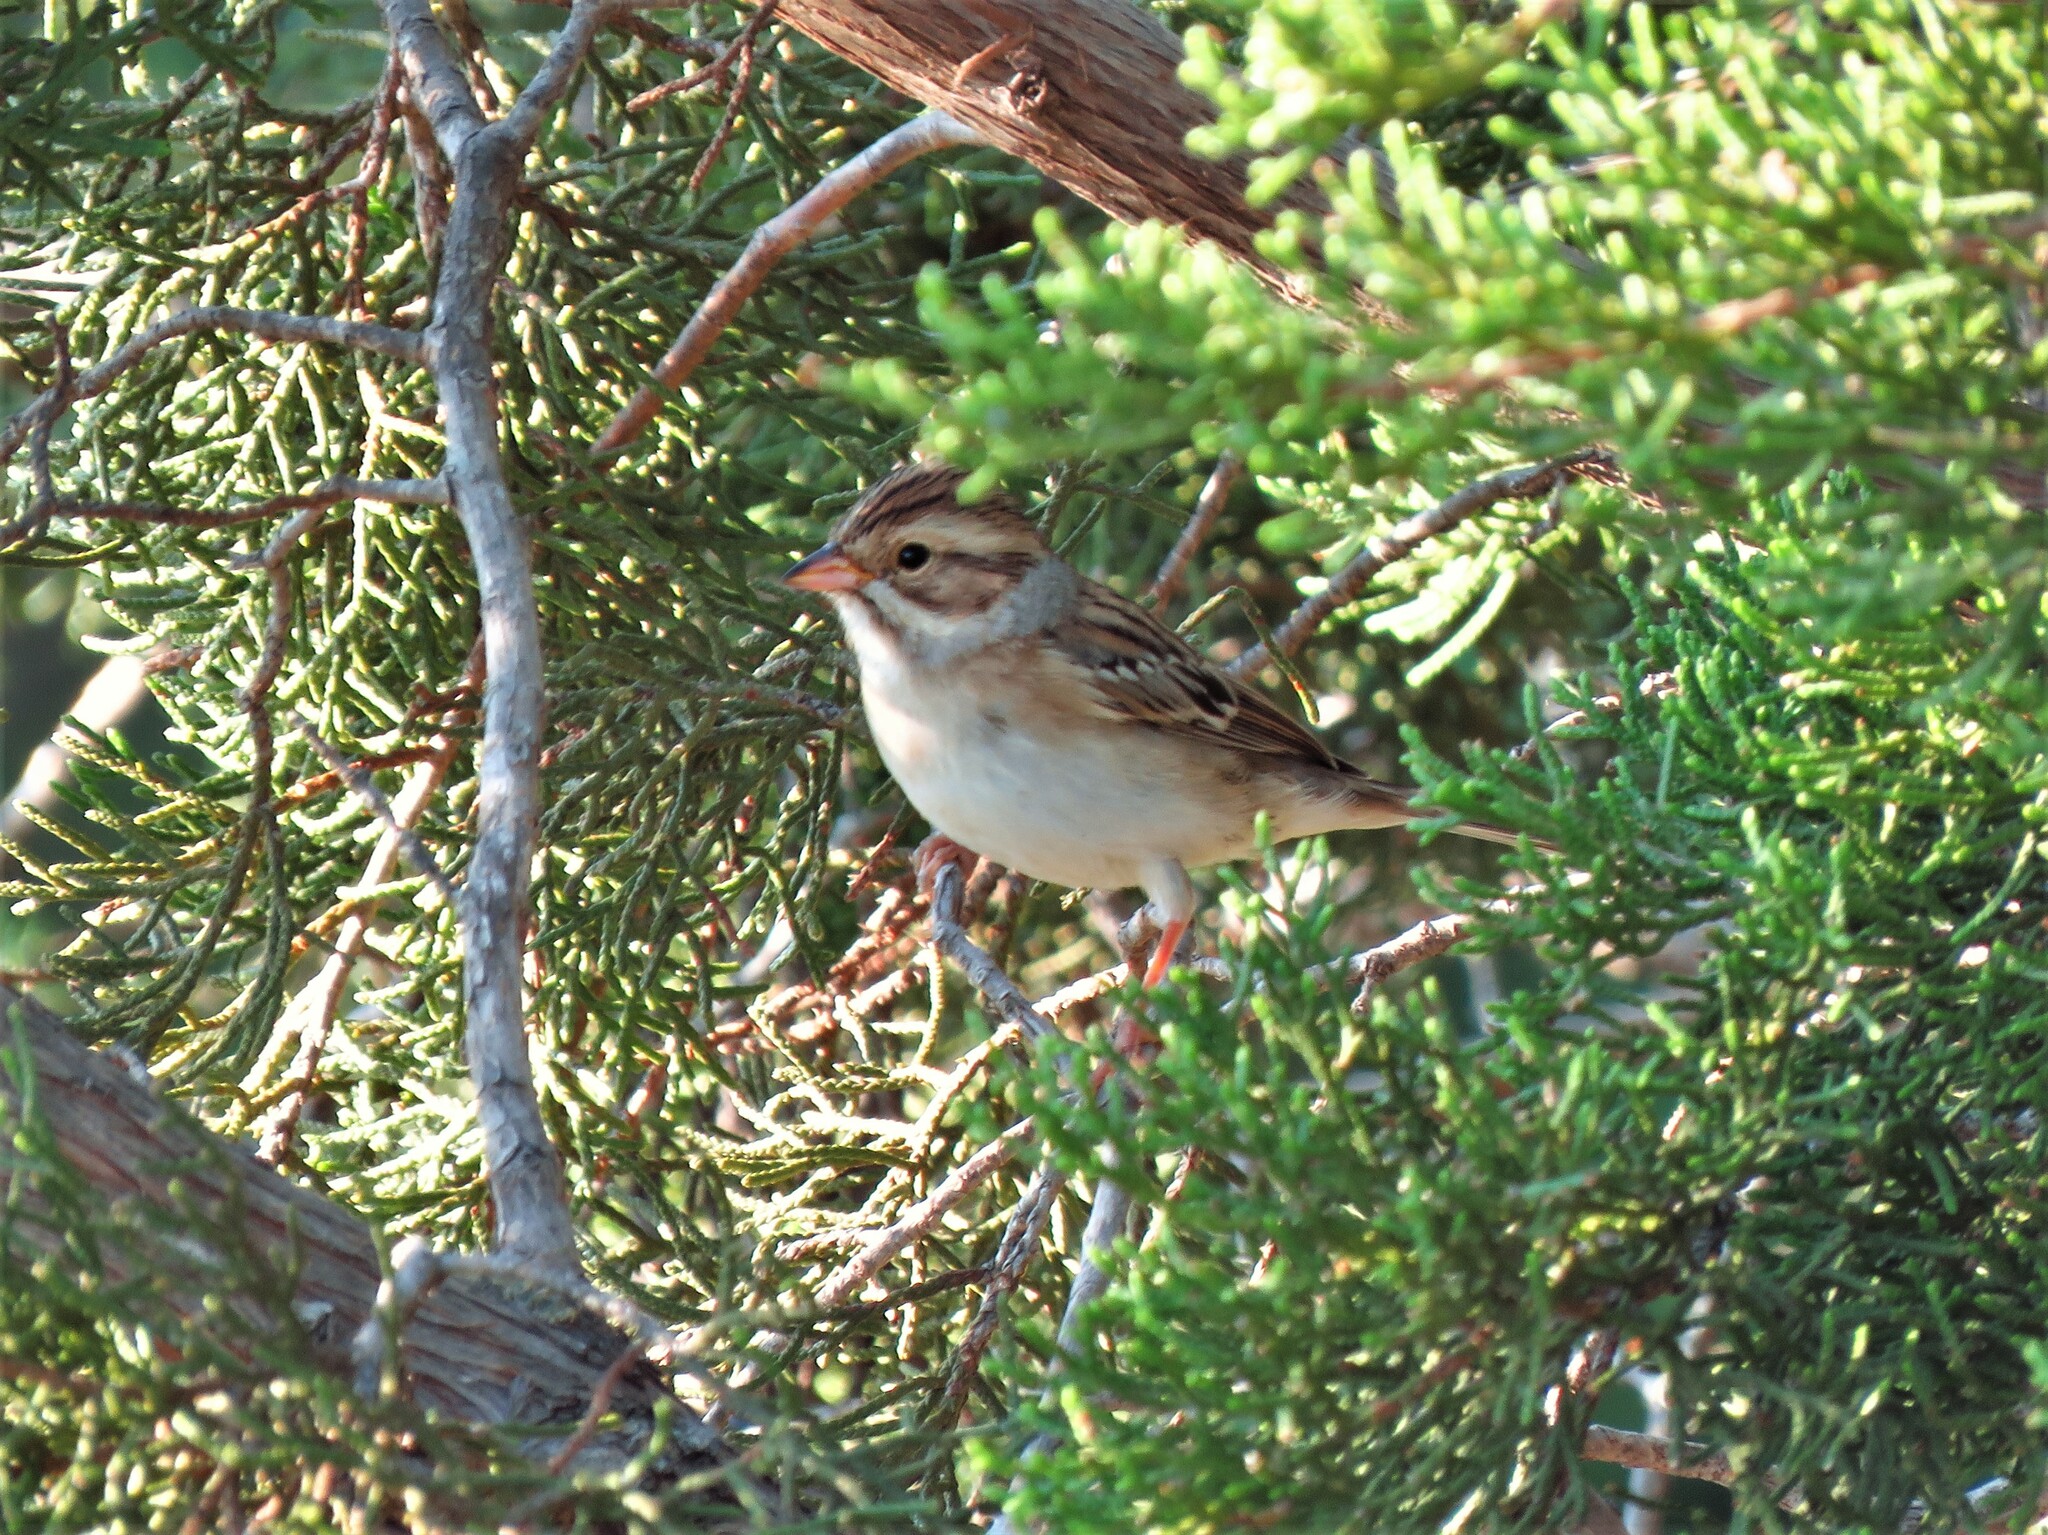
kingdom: Animalia
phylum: Chordata
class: Aves
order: Passeriformes
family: Passerellidae
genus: Spizella
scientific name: Spizella pallida
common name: Clay-colored sparrow
